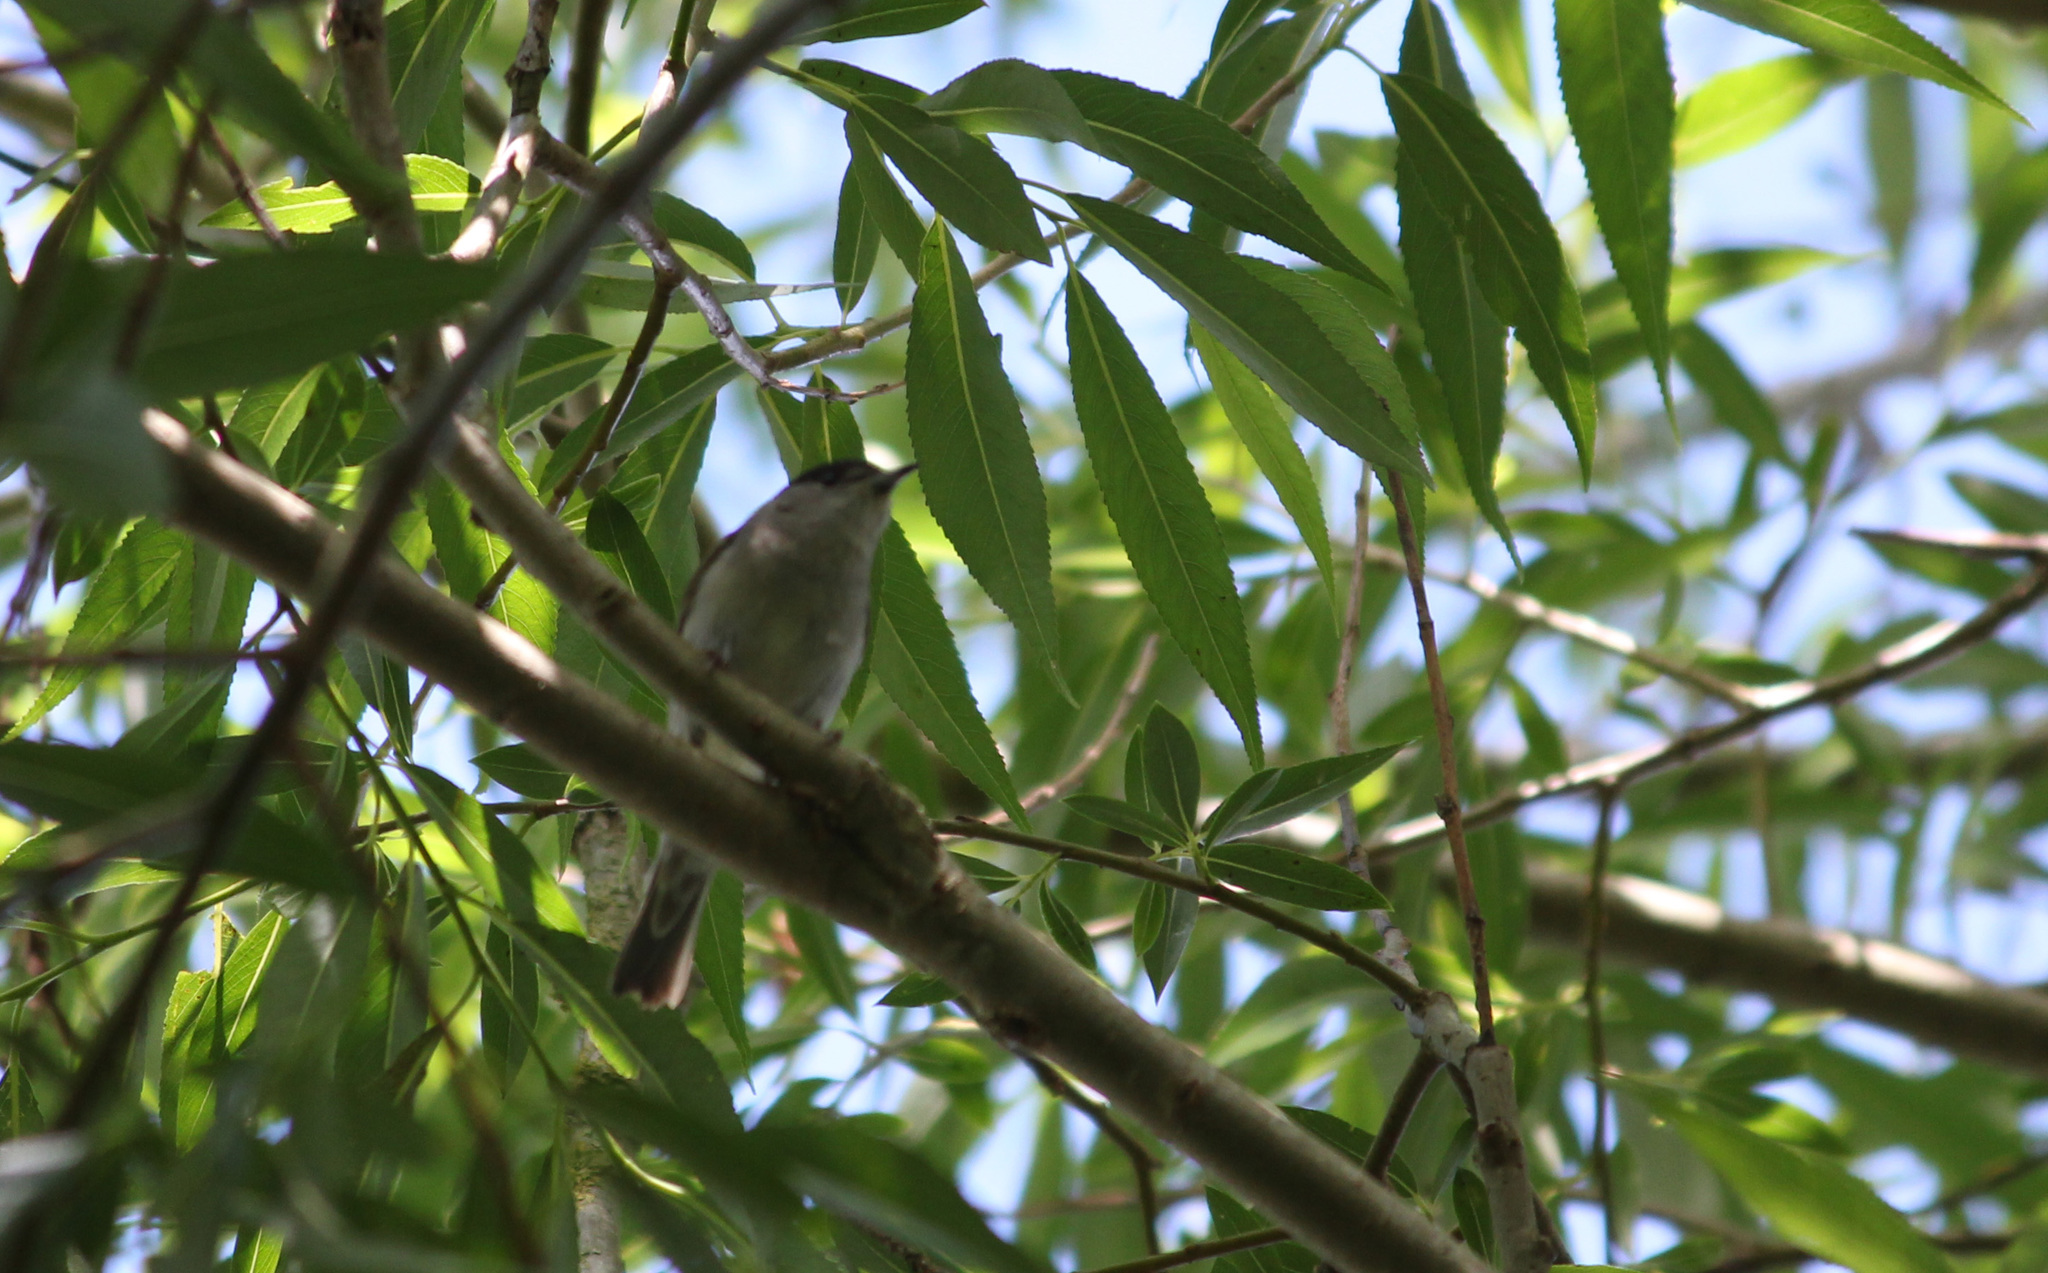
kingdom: Animalia
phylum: Chordata
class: Aves
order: Passeriformes
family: Sylviidae
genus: Sylvia
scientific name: Sylvia atricapilla
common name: Eurasian blackcap
